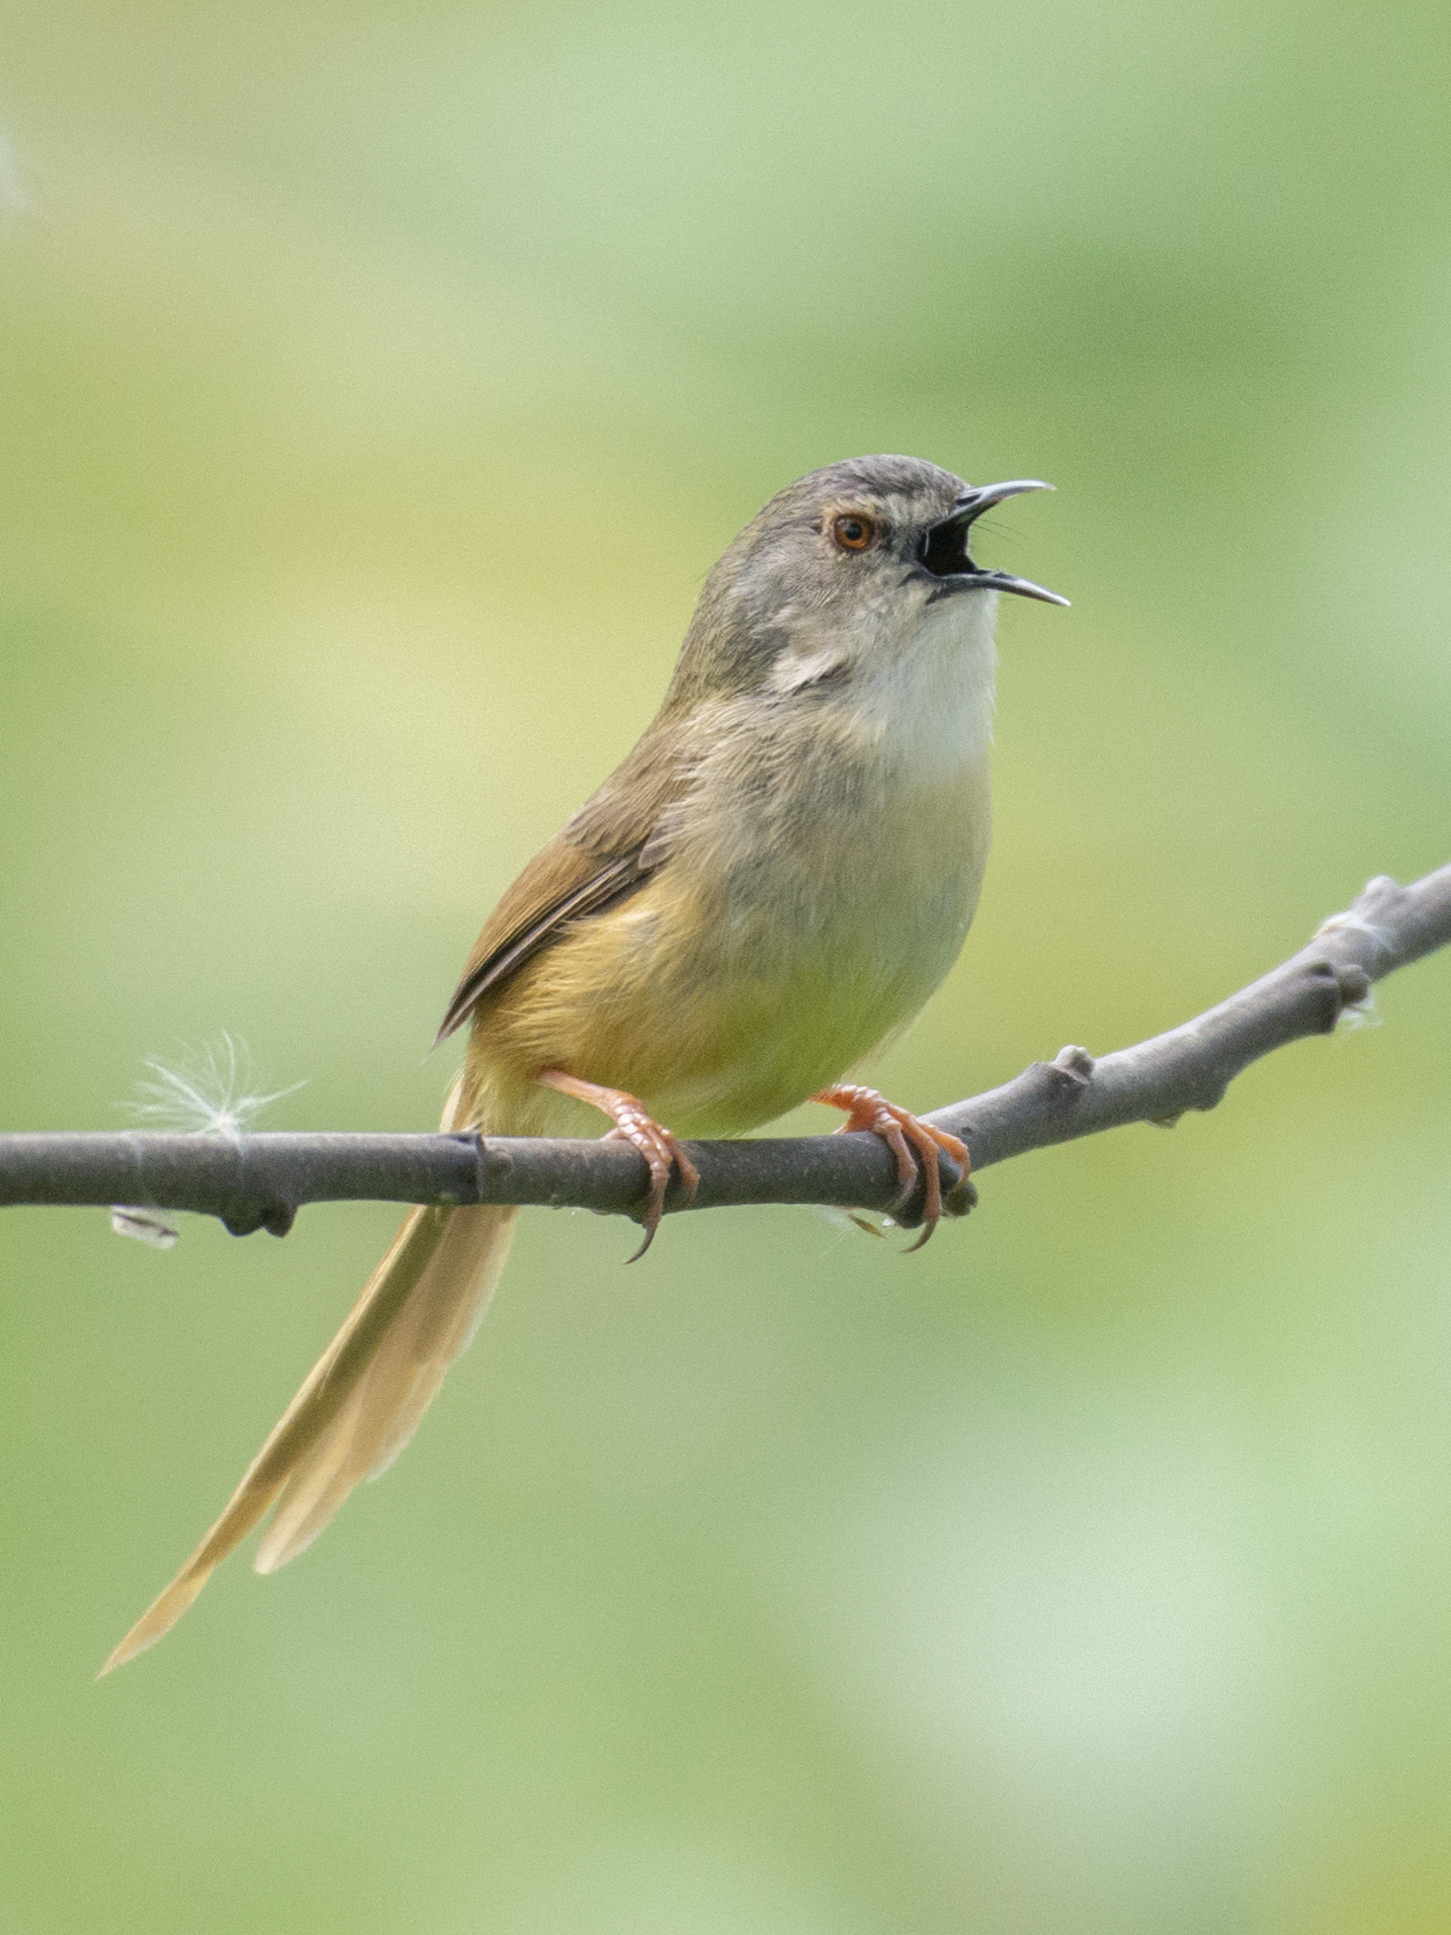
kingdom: Animalia
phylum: Chordata
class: Aves
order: Passeriformes
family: Cisticolidae
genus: Prinia
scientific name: Prinia flaviventris
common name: Yellow-bellied prinia
